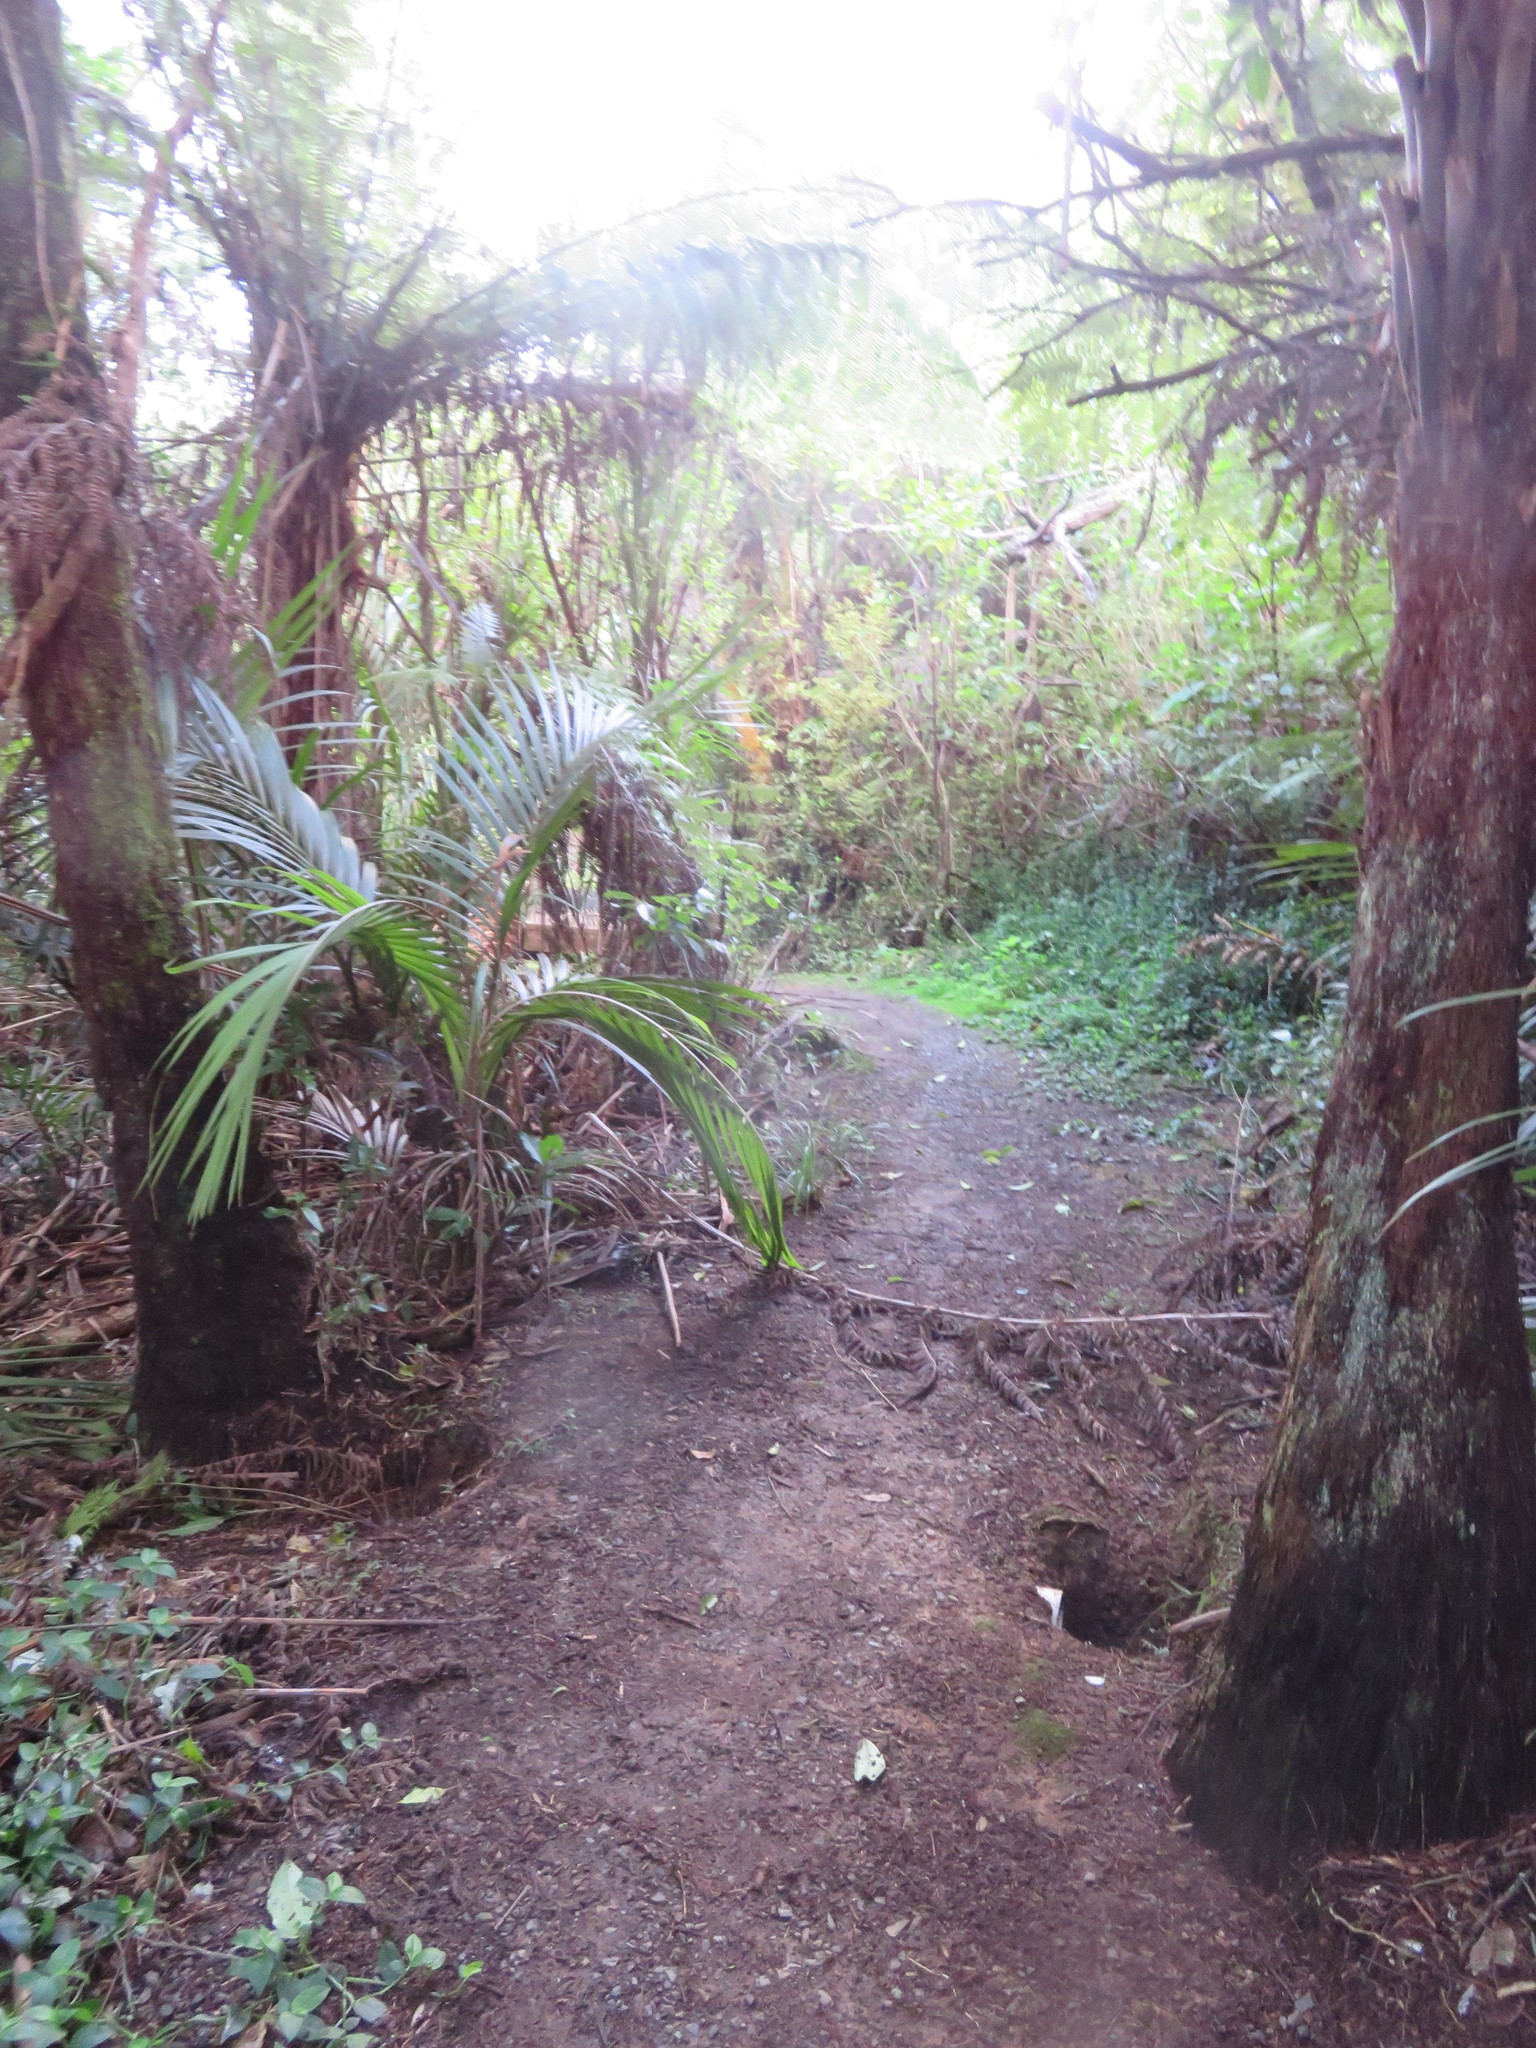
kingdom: Plantae
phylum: Tracheophyta
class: Liliopsida
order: Commelinales
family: Commelinaceae
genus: Tradescantia
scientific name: Tradescantia fluminensis
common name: Wandering-jew
